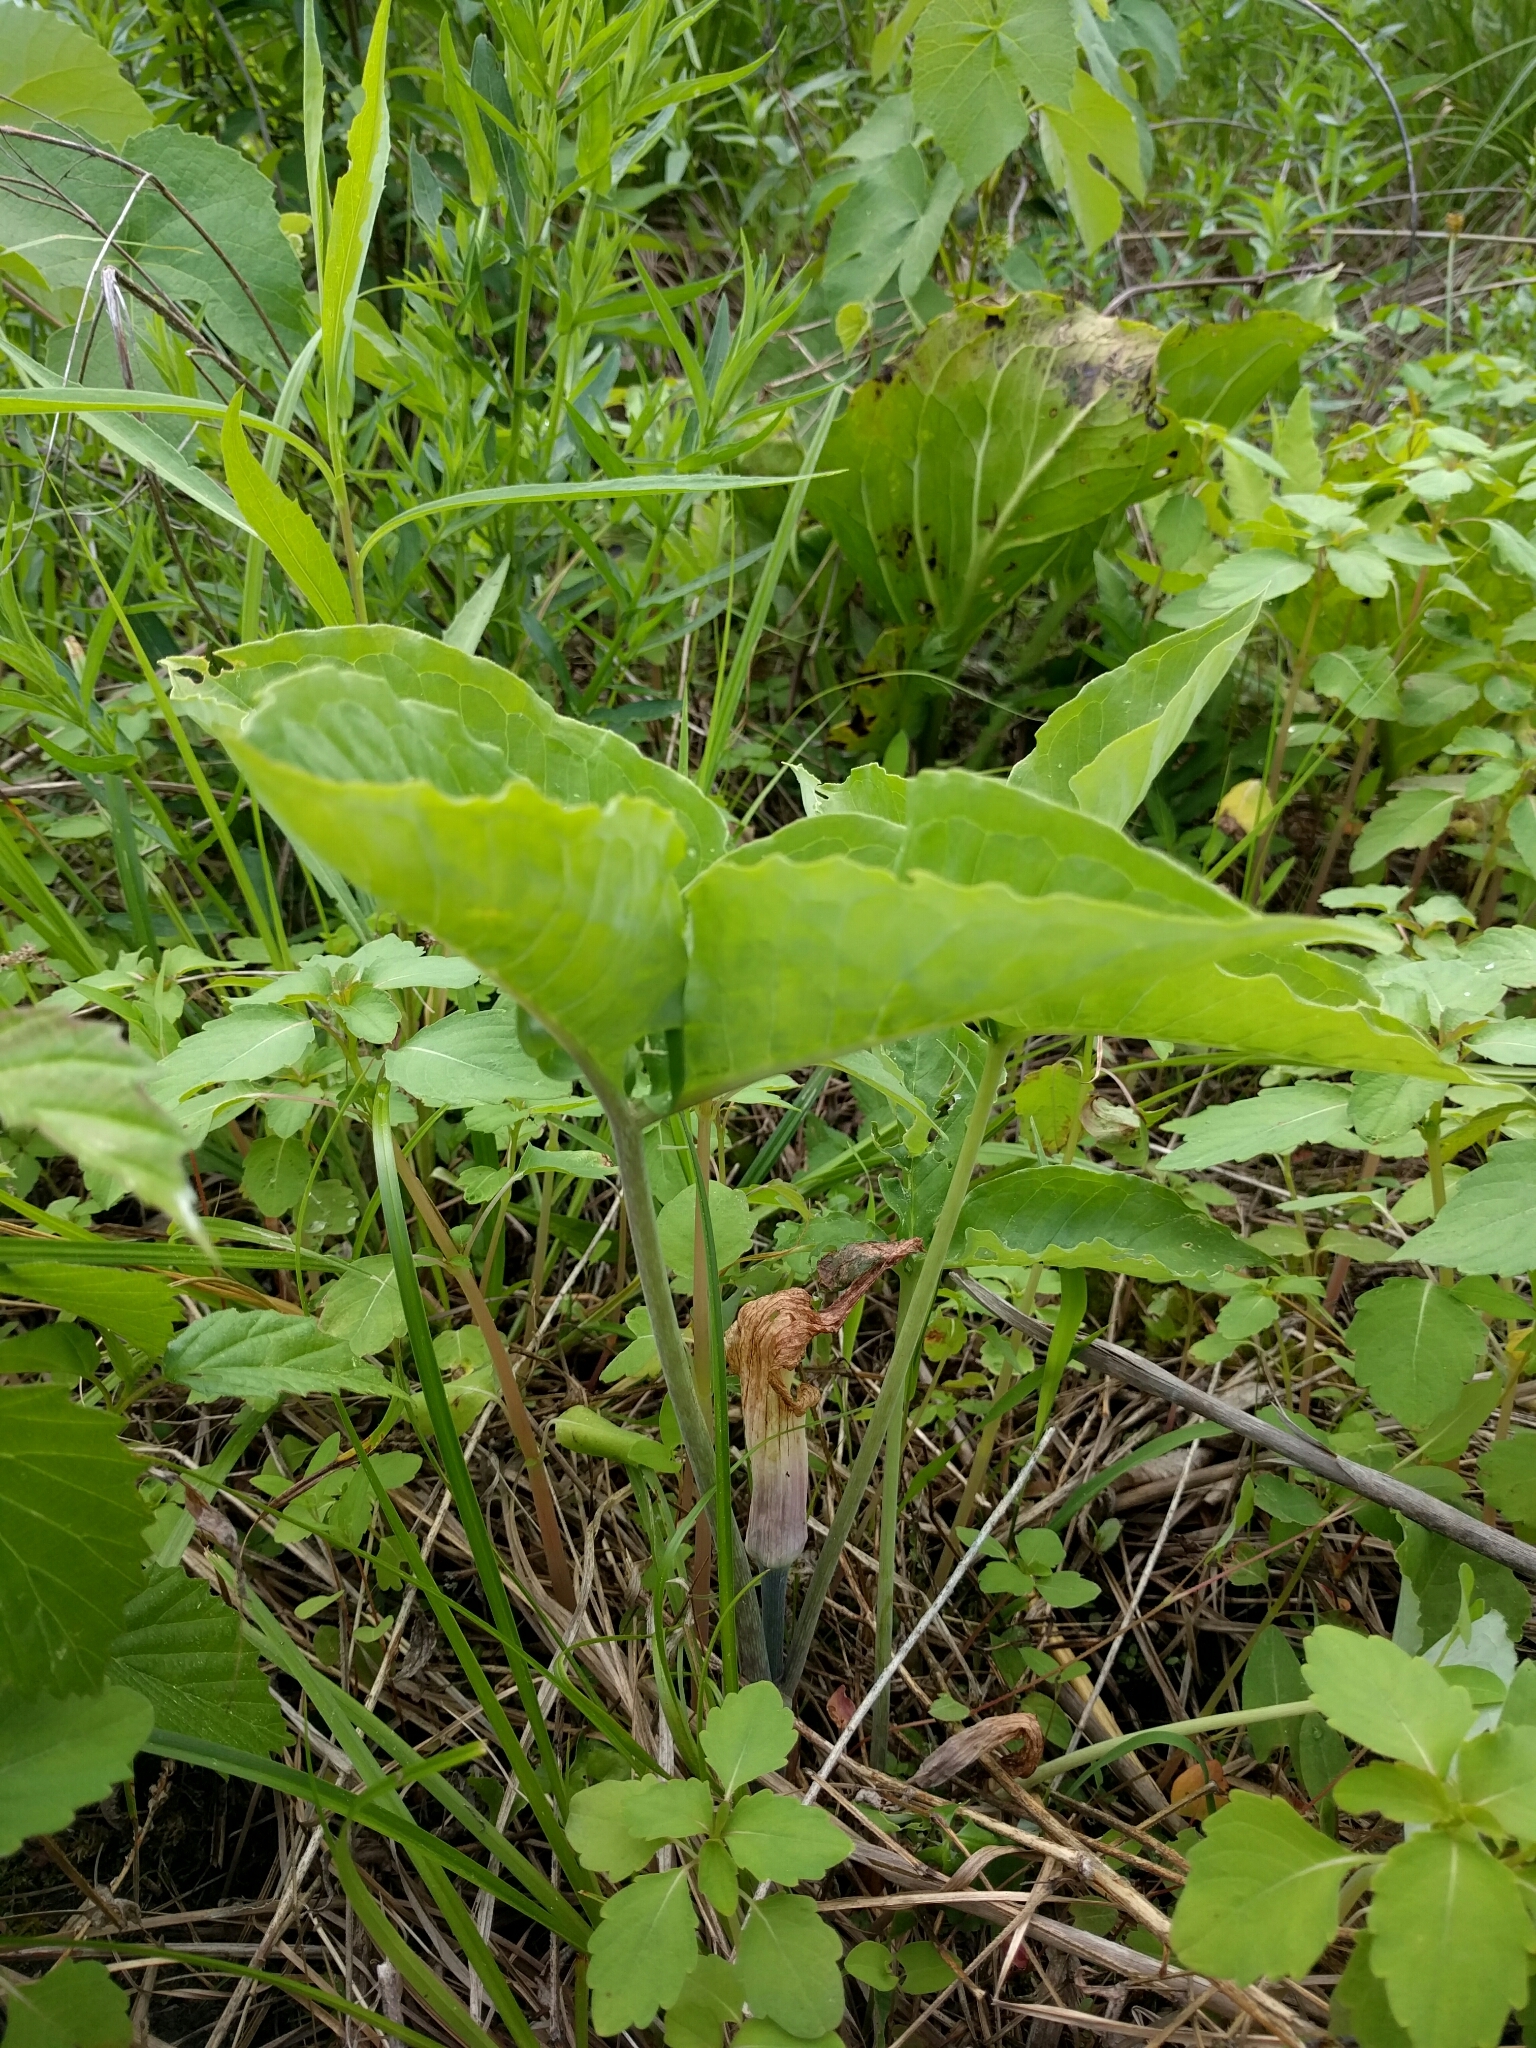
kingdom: Plantae
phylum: Tracheophyta
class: Liliopsida
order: Alismatales
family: Araceae
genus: Arisaema
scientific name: Arisaema triphyllum
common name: Jack-in-the-pulpit
